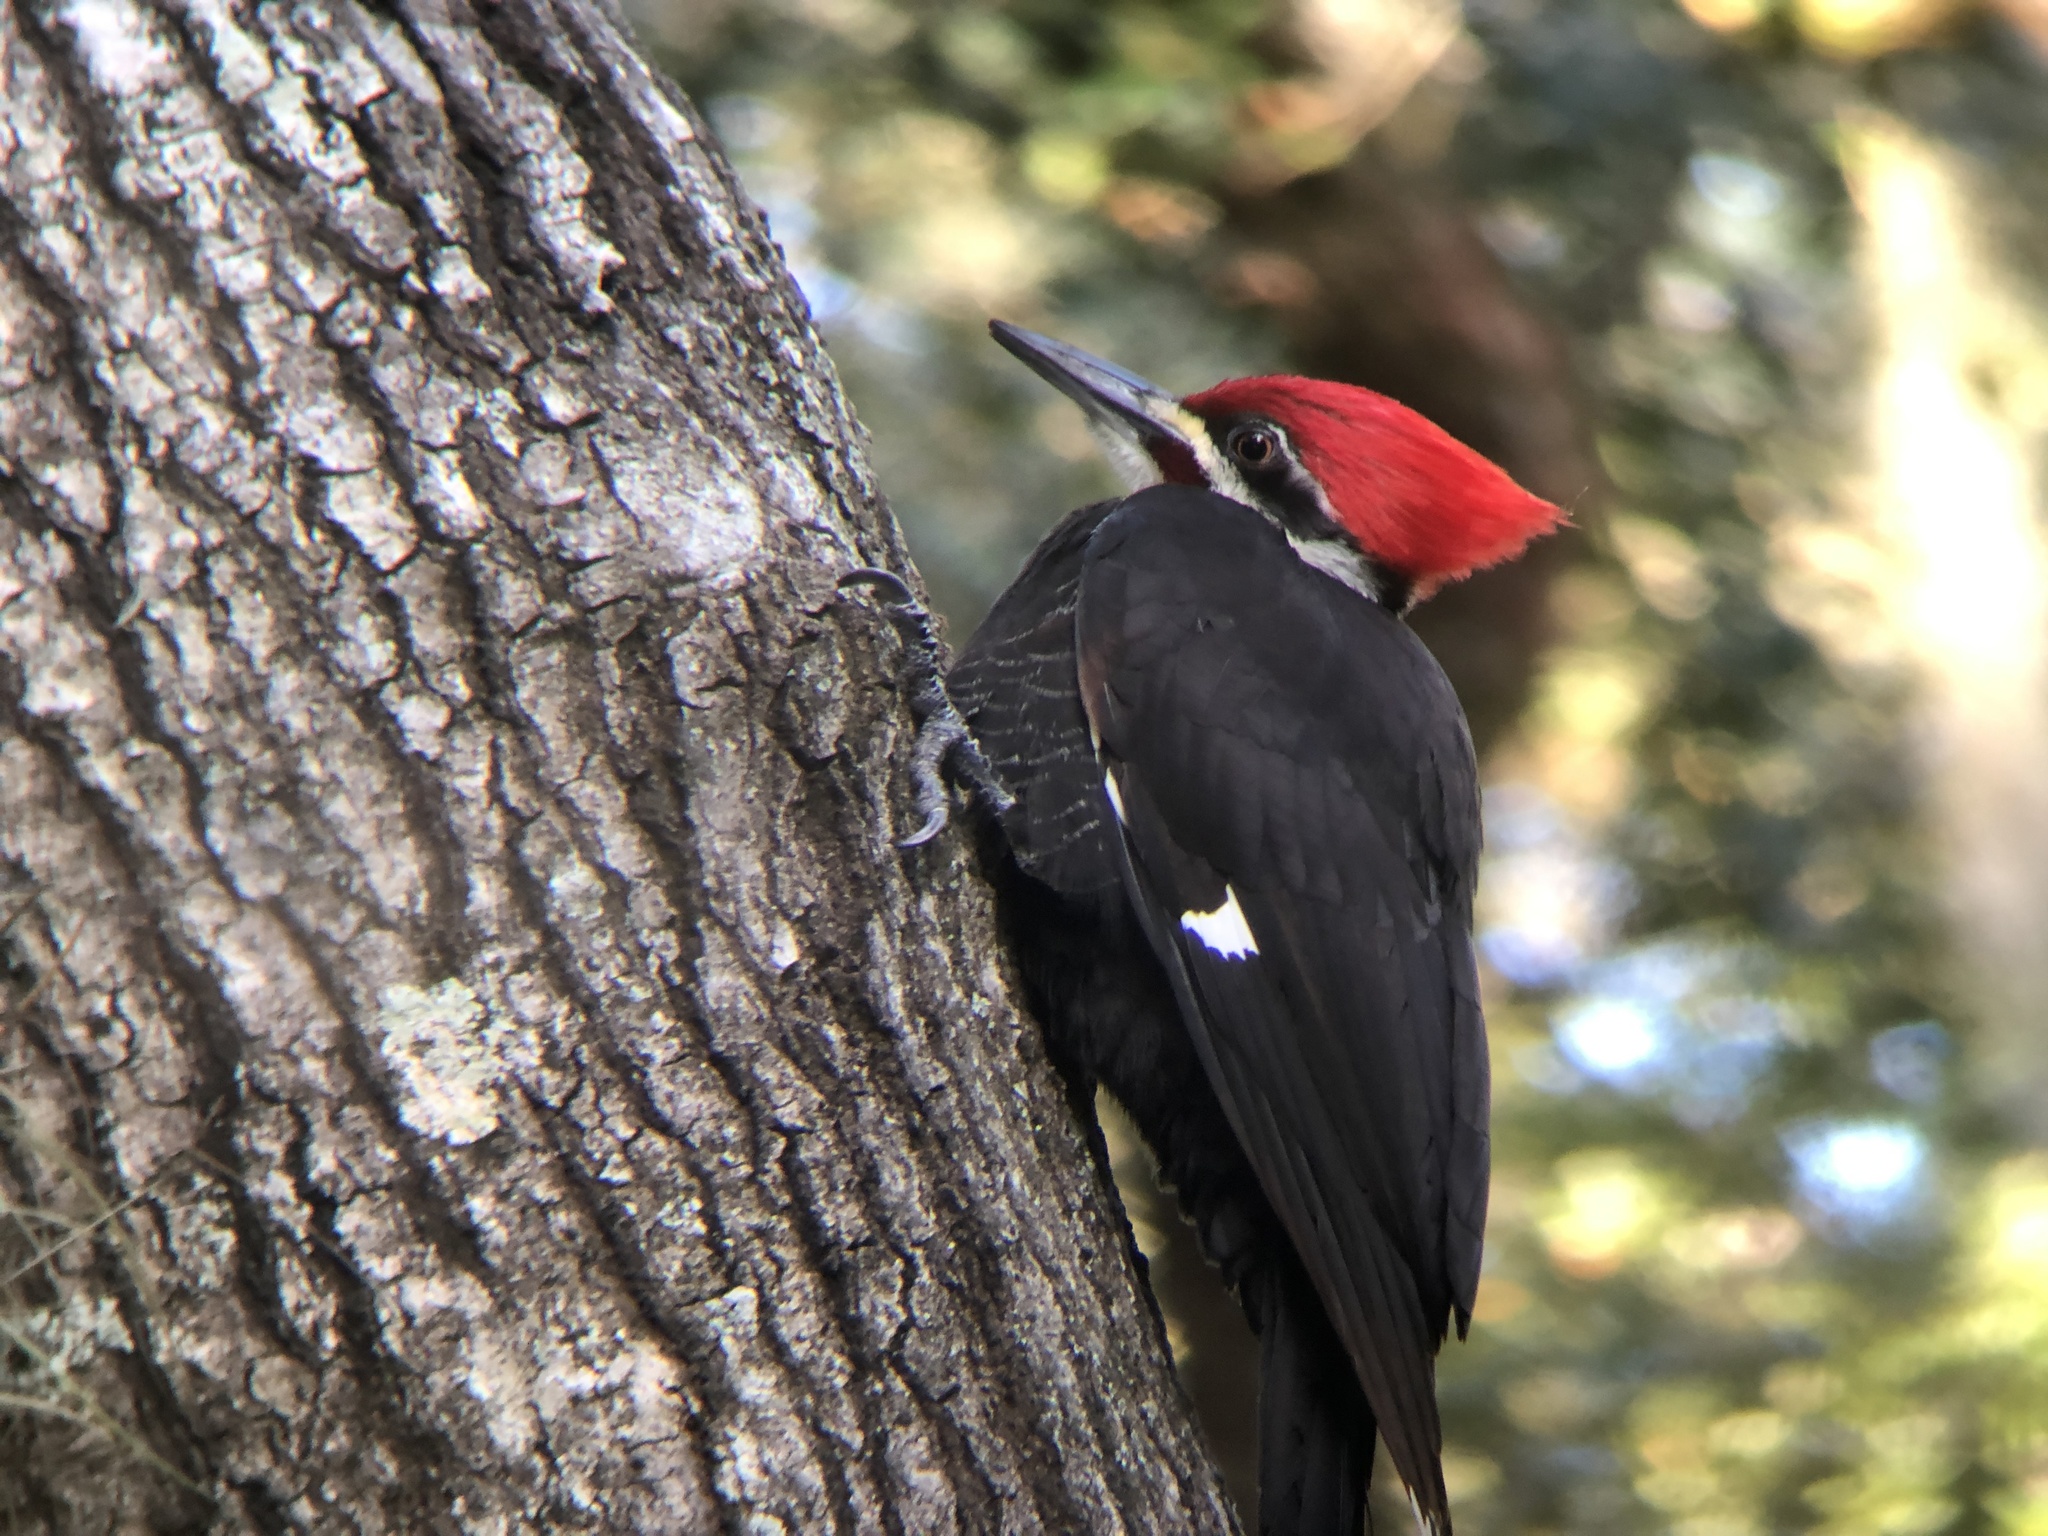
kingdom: Animalia
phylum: Chordata
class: Aves
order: Piciformes
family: Picidae
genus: Dryocopus
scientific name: Dryocopus pileatus
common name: Pileated woodpecker
